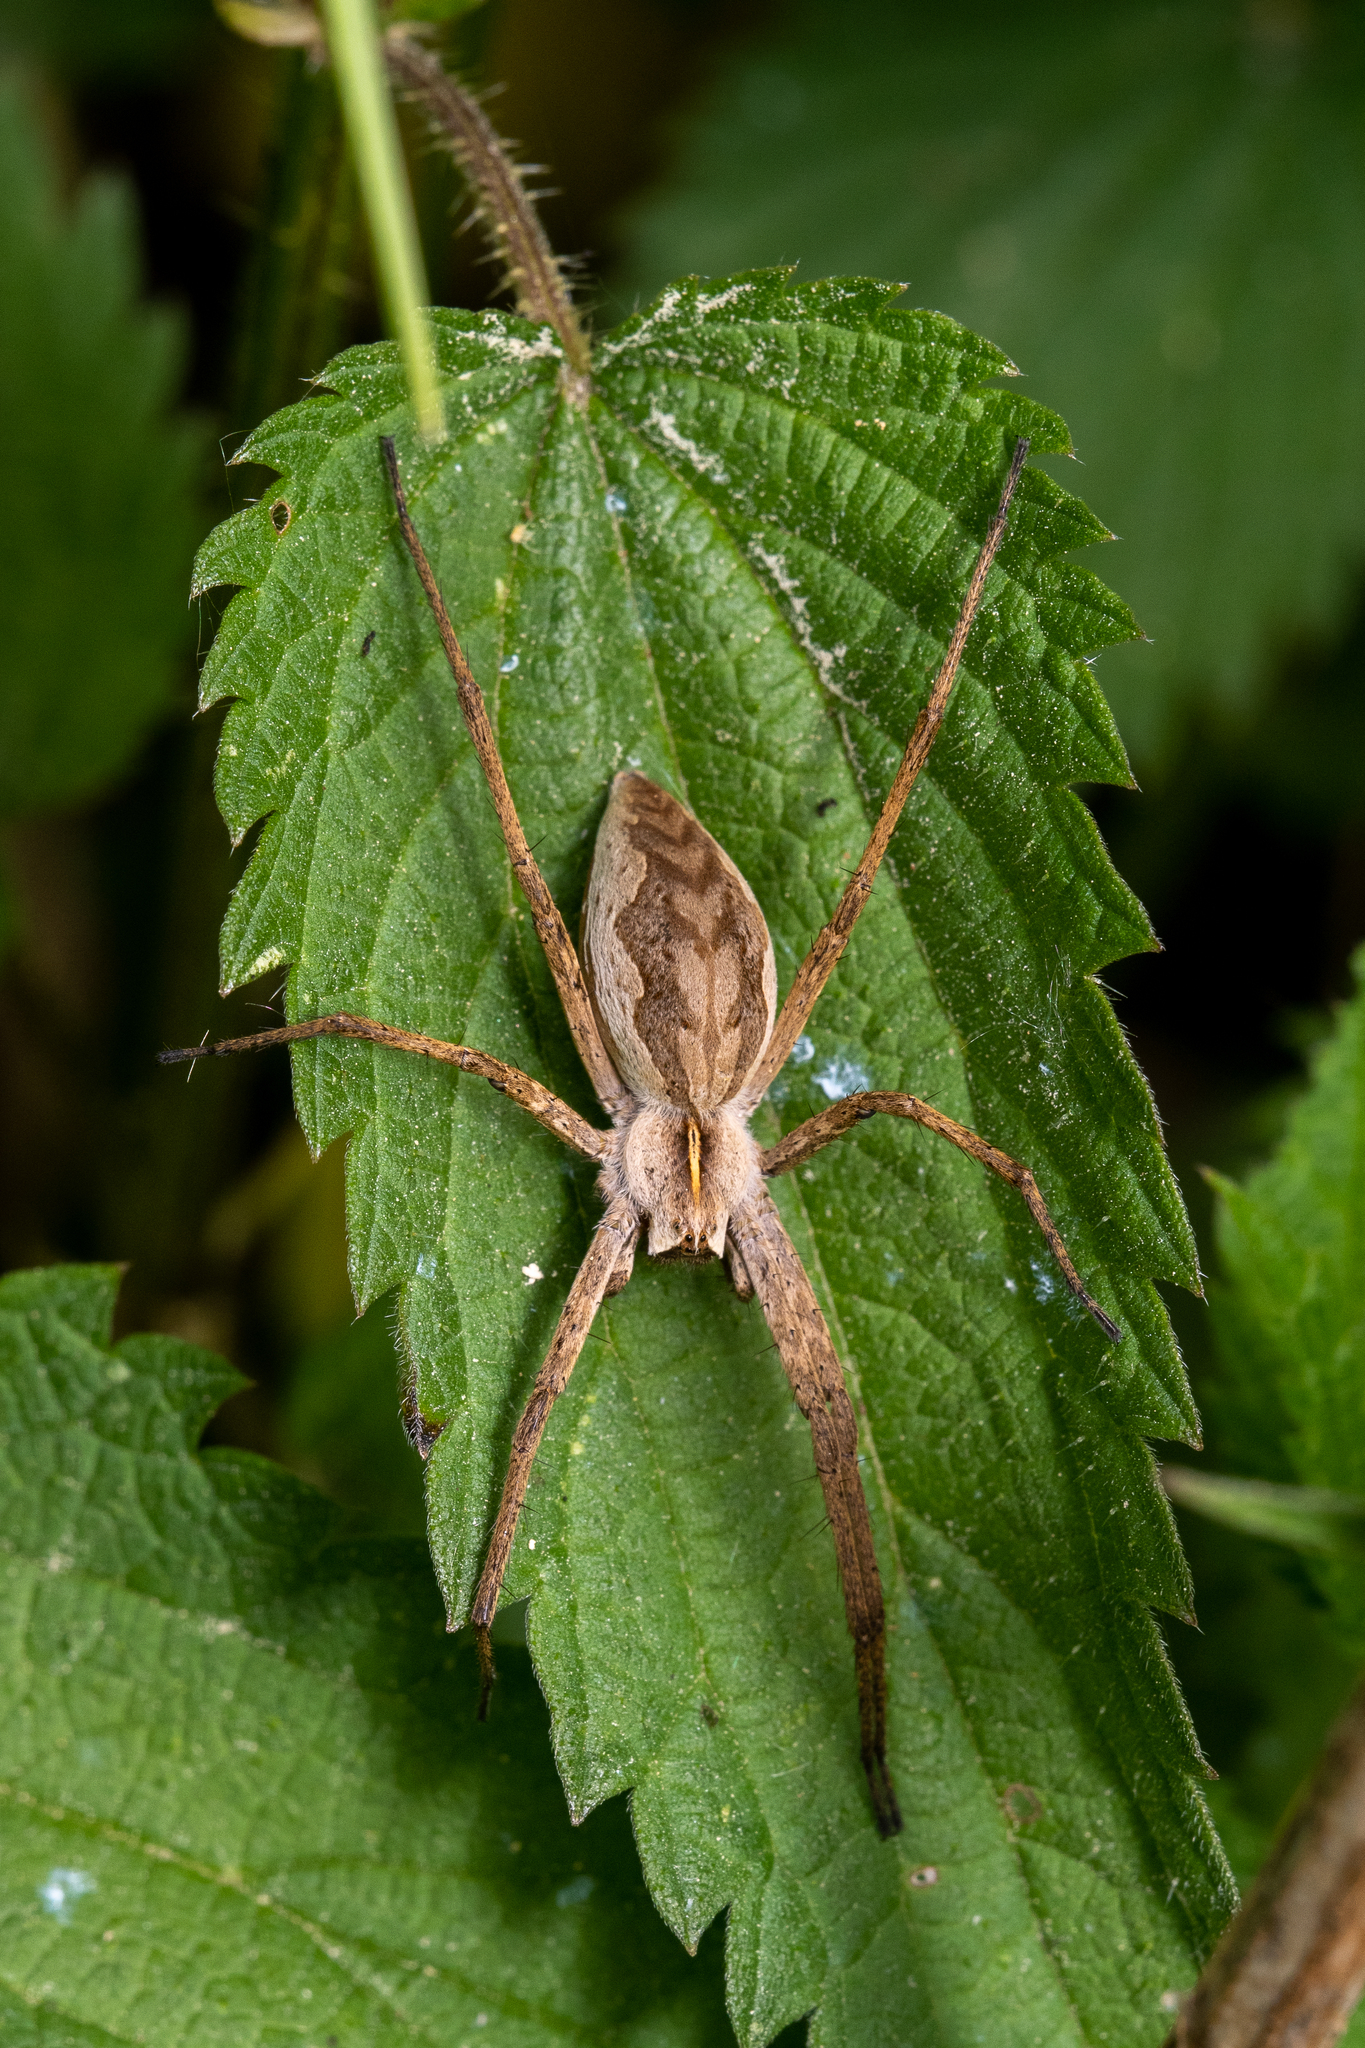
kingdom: Animalia
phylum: Arthropoda
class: Arachnida
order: Araneae
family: Pisauridae
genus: Pisaura
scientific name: Pisaura mirabilis
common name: Tent spider
